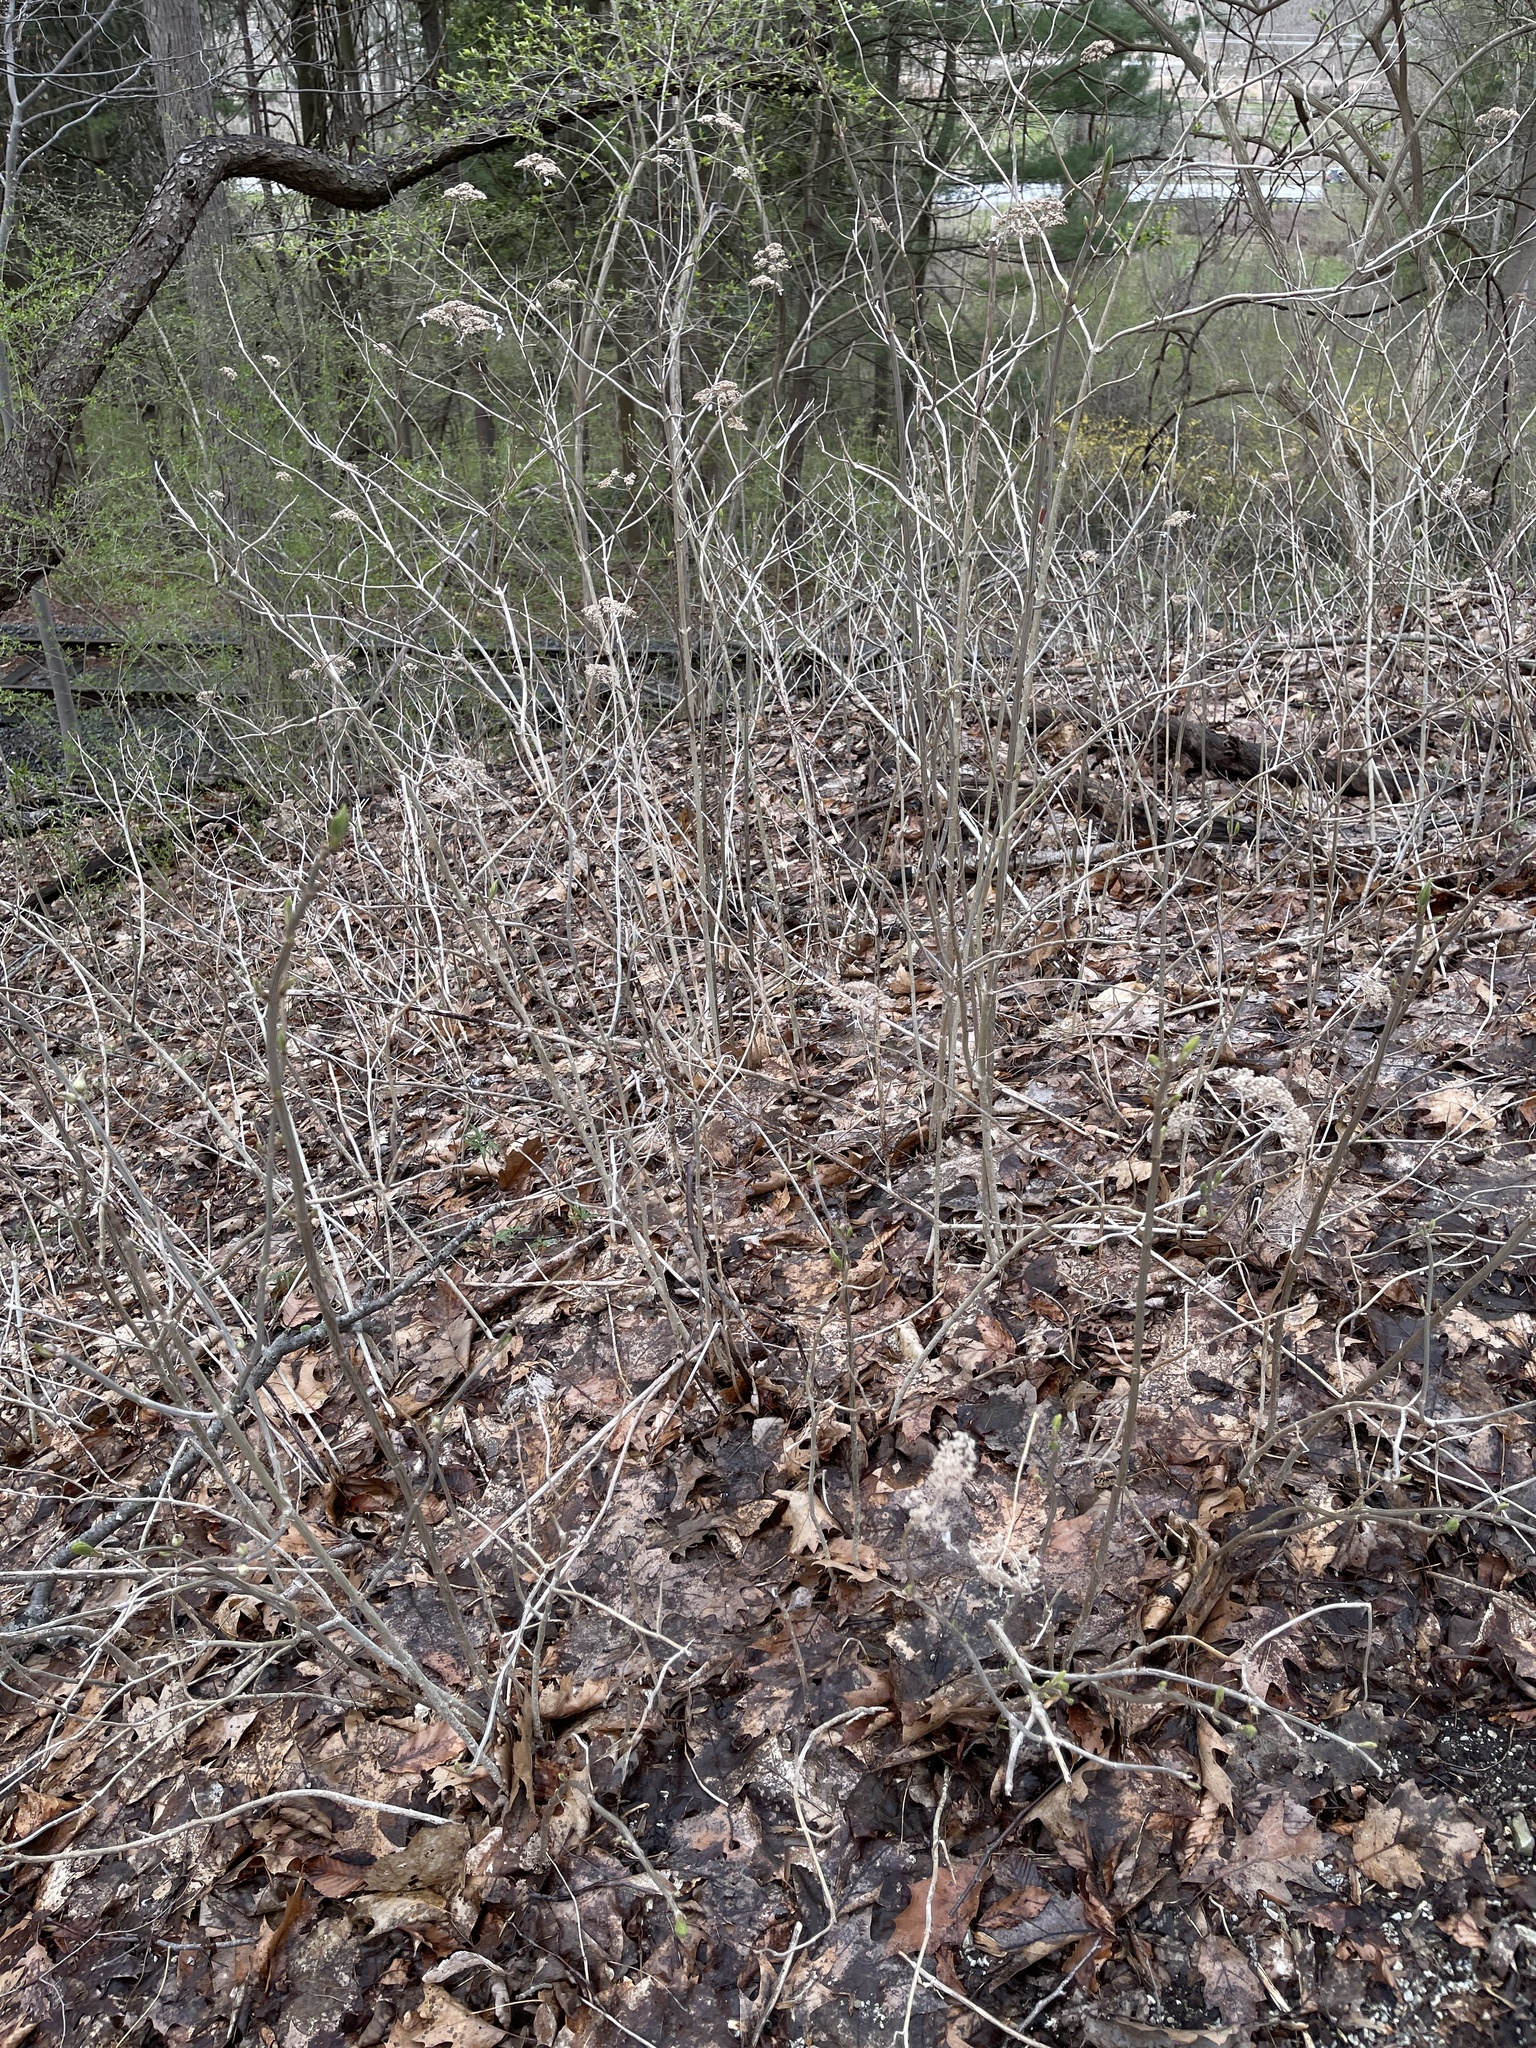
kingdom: Plantae
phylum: Tracheophyta
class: Magnoliopsida
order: Cornales
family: Hydrangeaceae
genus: Hydrangea
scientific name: Hydrangea arborescens
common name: Sevenbark
